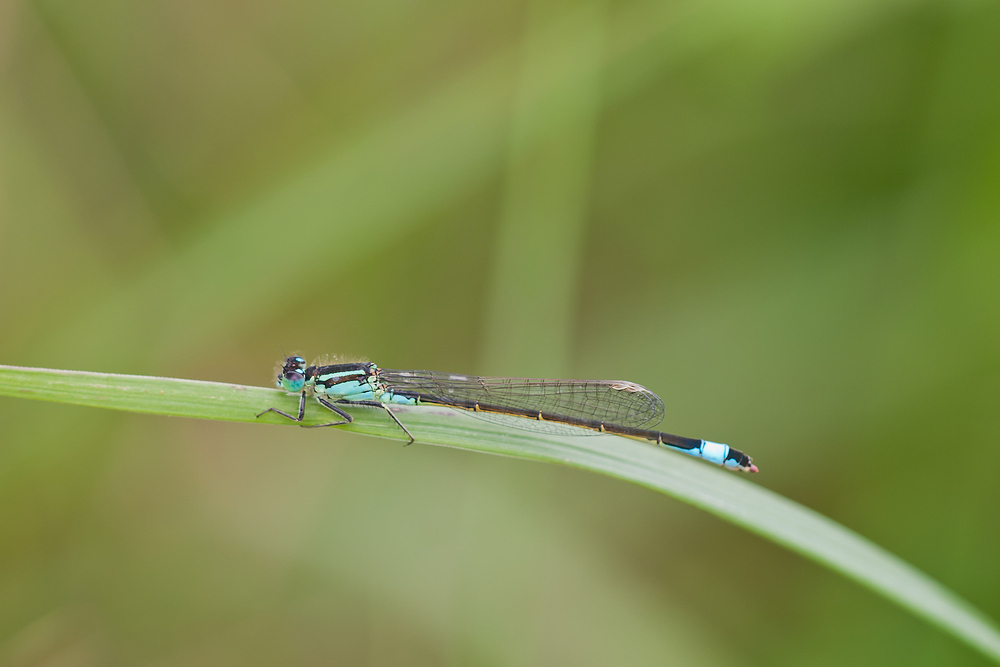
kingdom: Animalia
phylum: Arthropoda
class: Insecta
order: Odonata
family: Coenagrionidae
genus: Ischnura
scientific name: Ischnura elegans
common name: Blue-tailed damselfly
